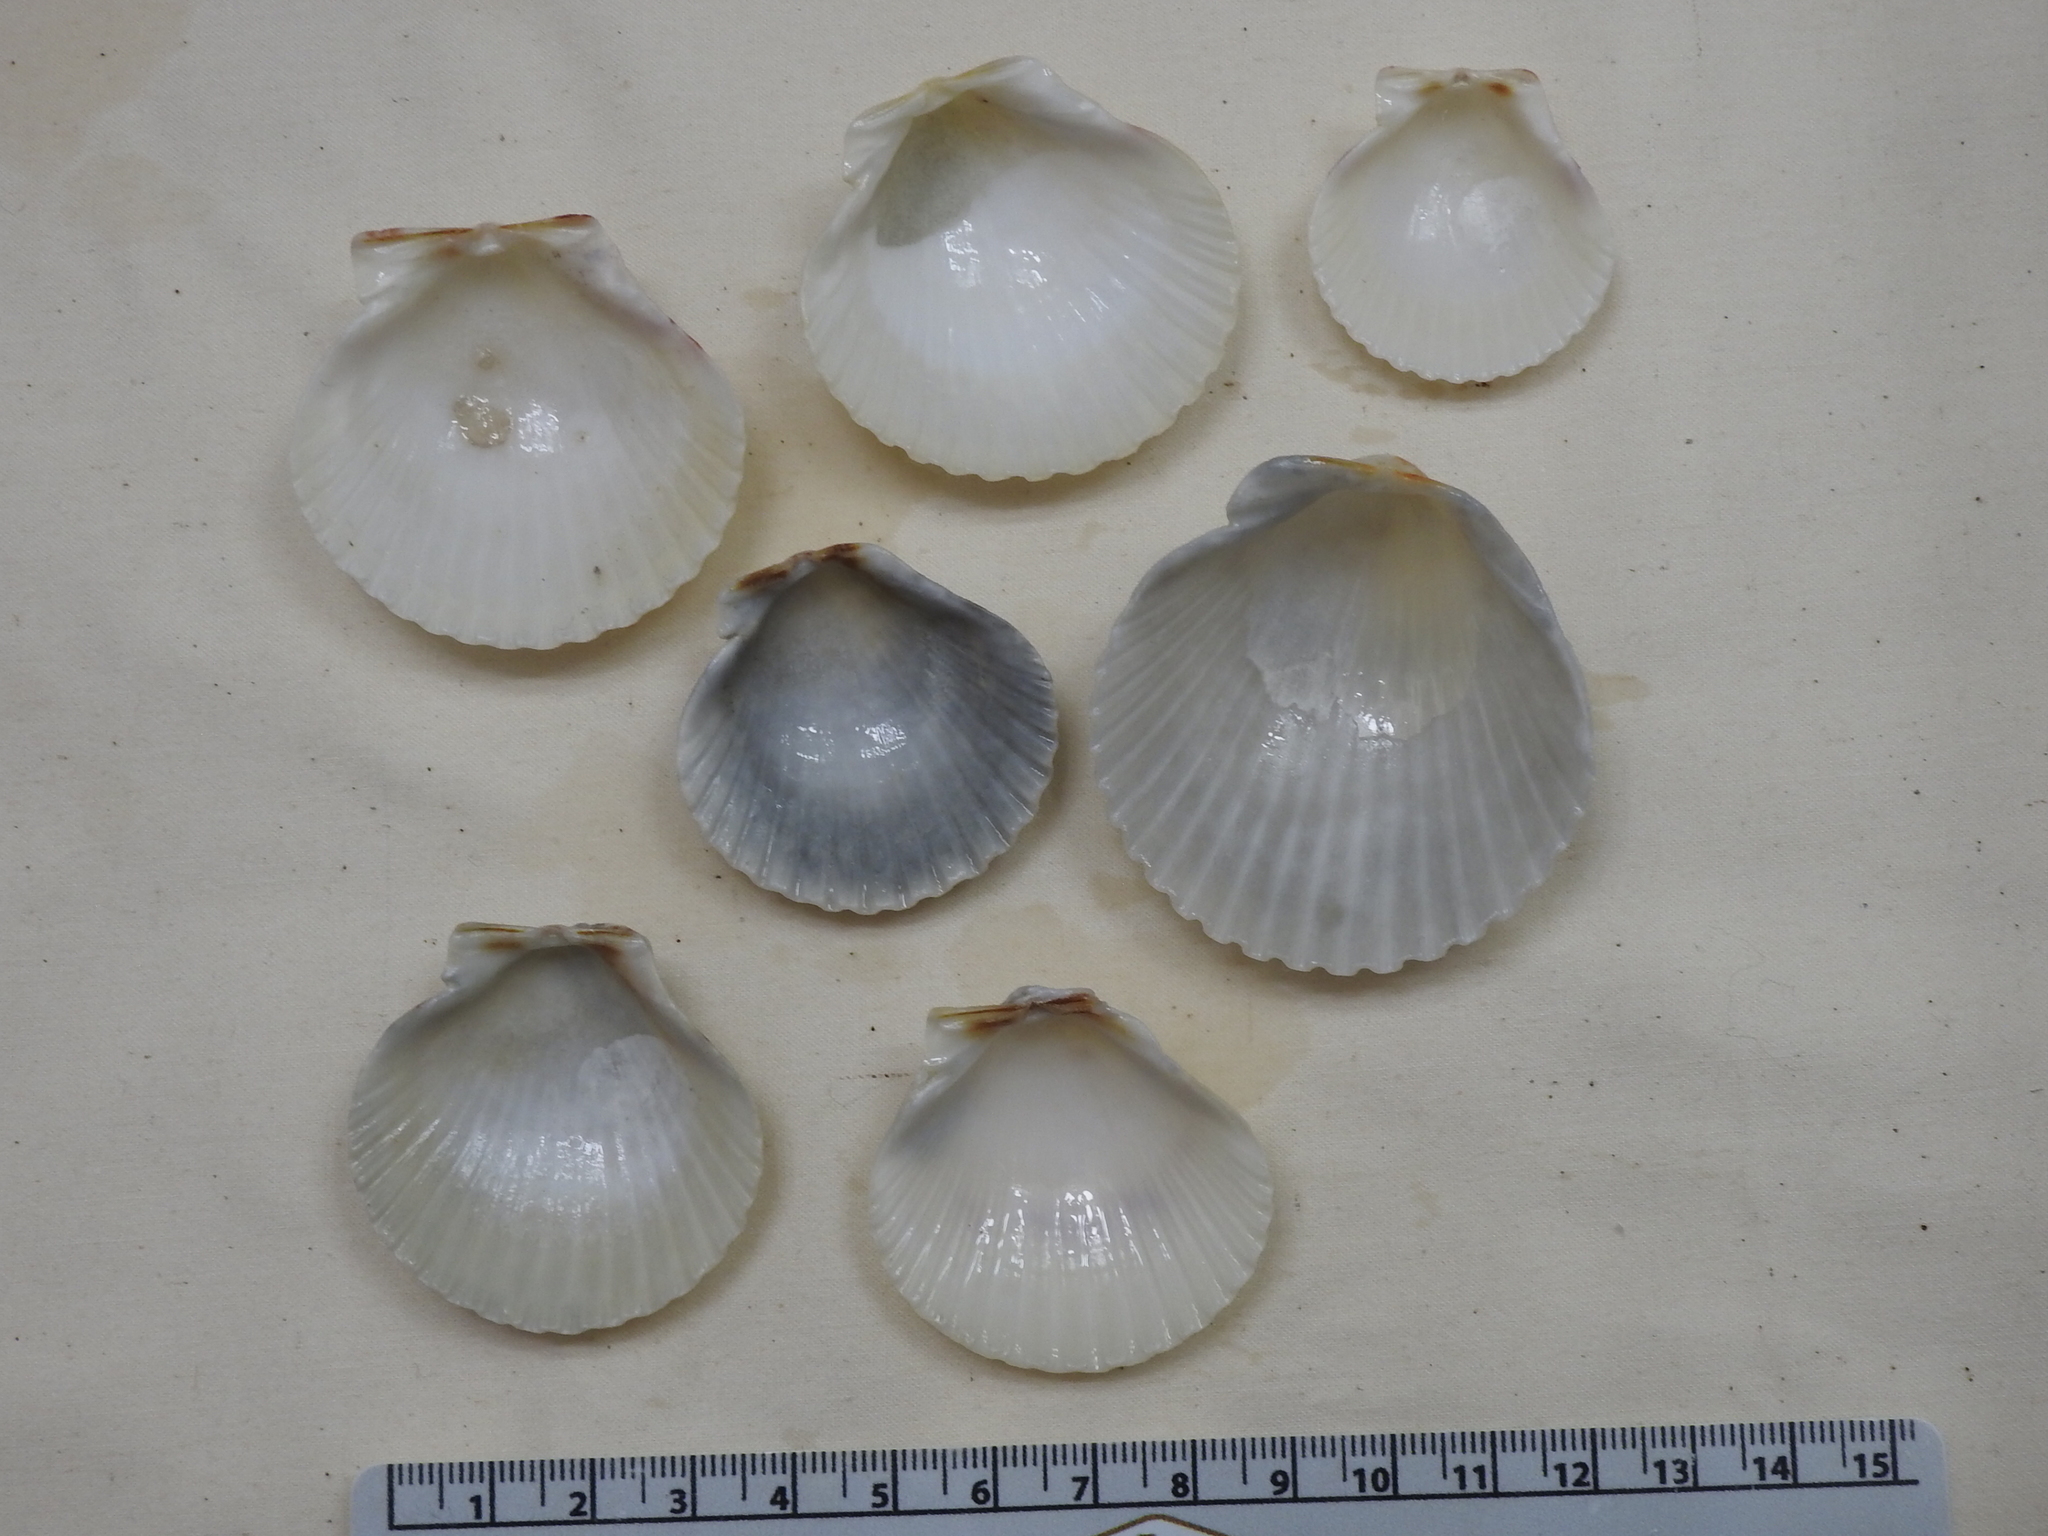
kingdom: Animalia
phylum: Mollusca
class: Bivalvia
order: Pectinida
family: Pectinidae
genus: Argopecten
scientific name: Argopecten gibbus
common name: Atlantic calico scallop
